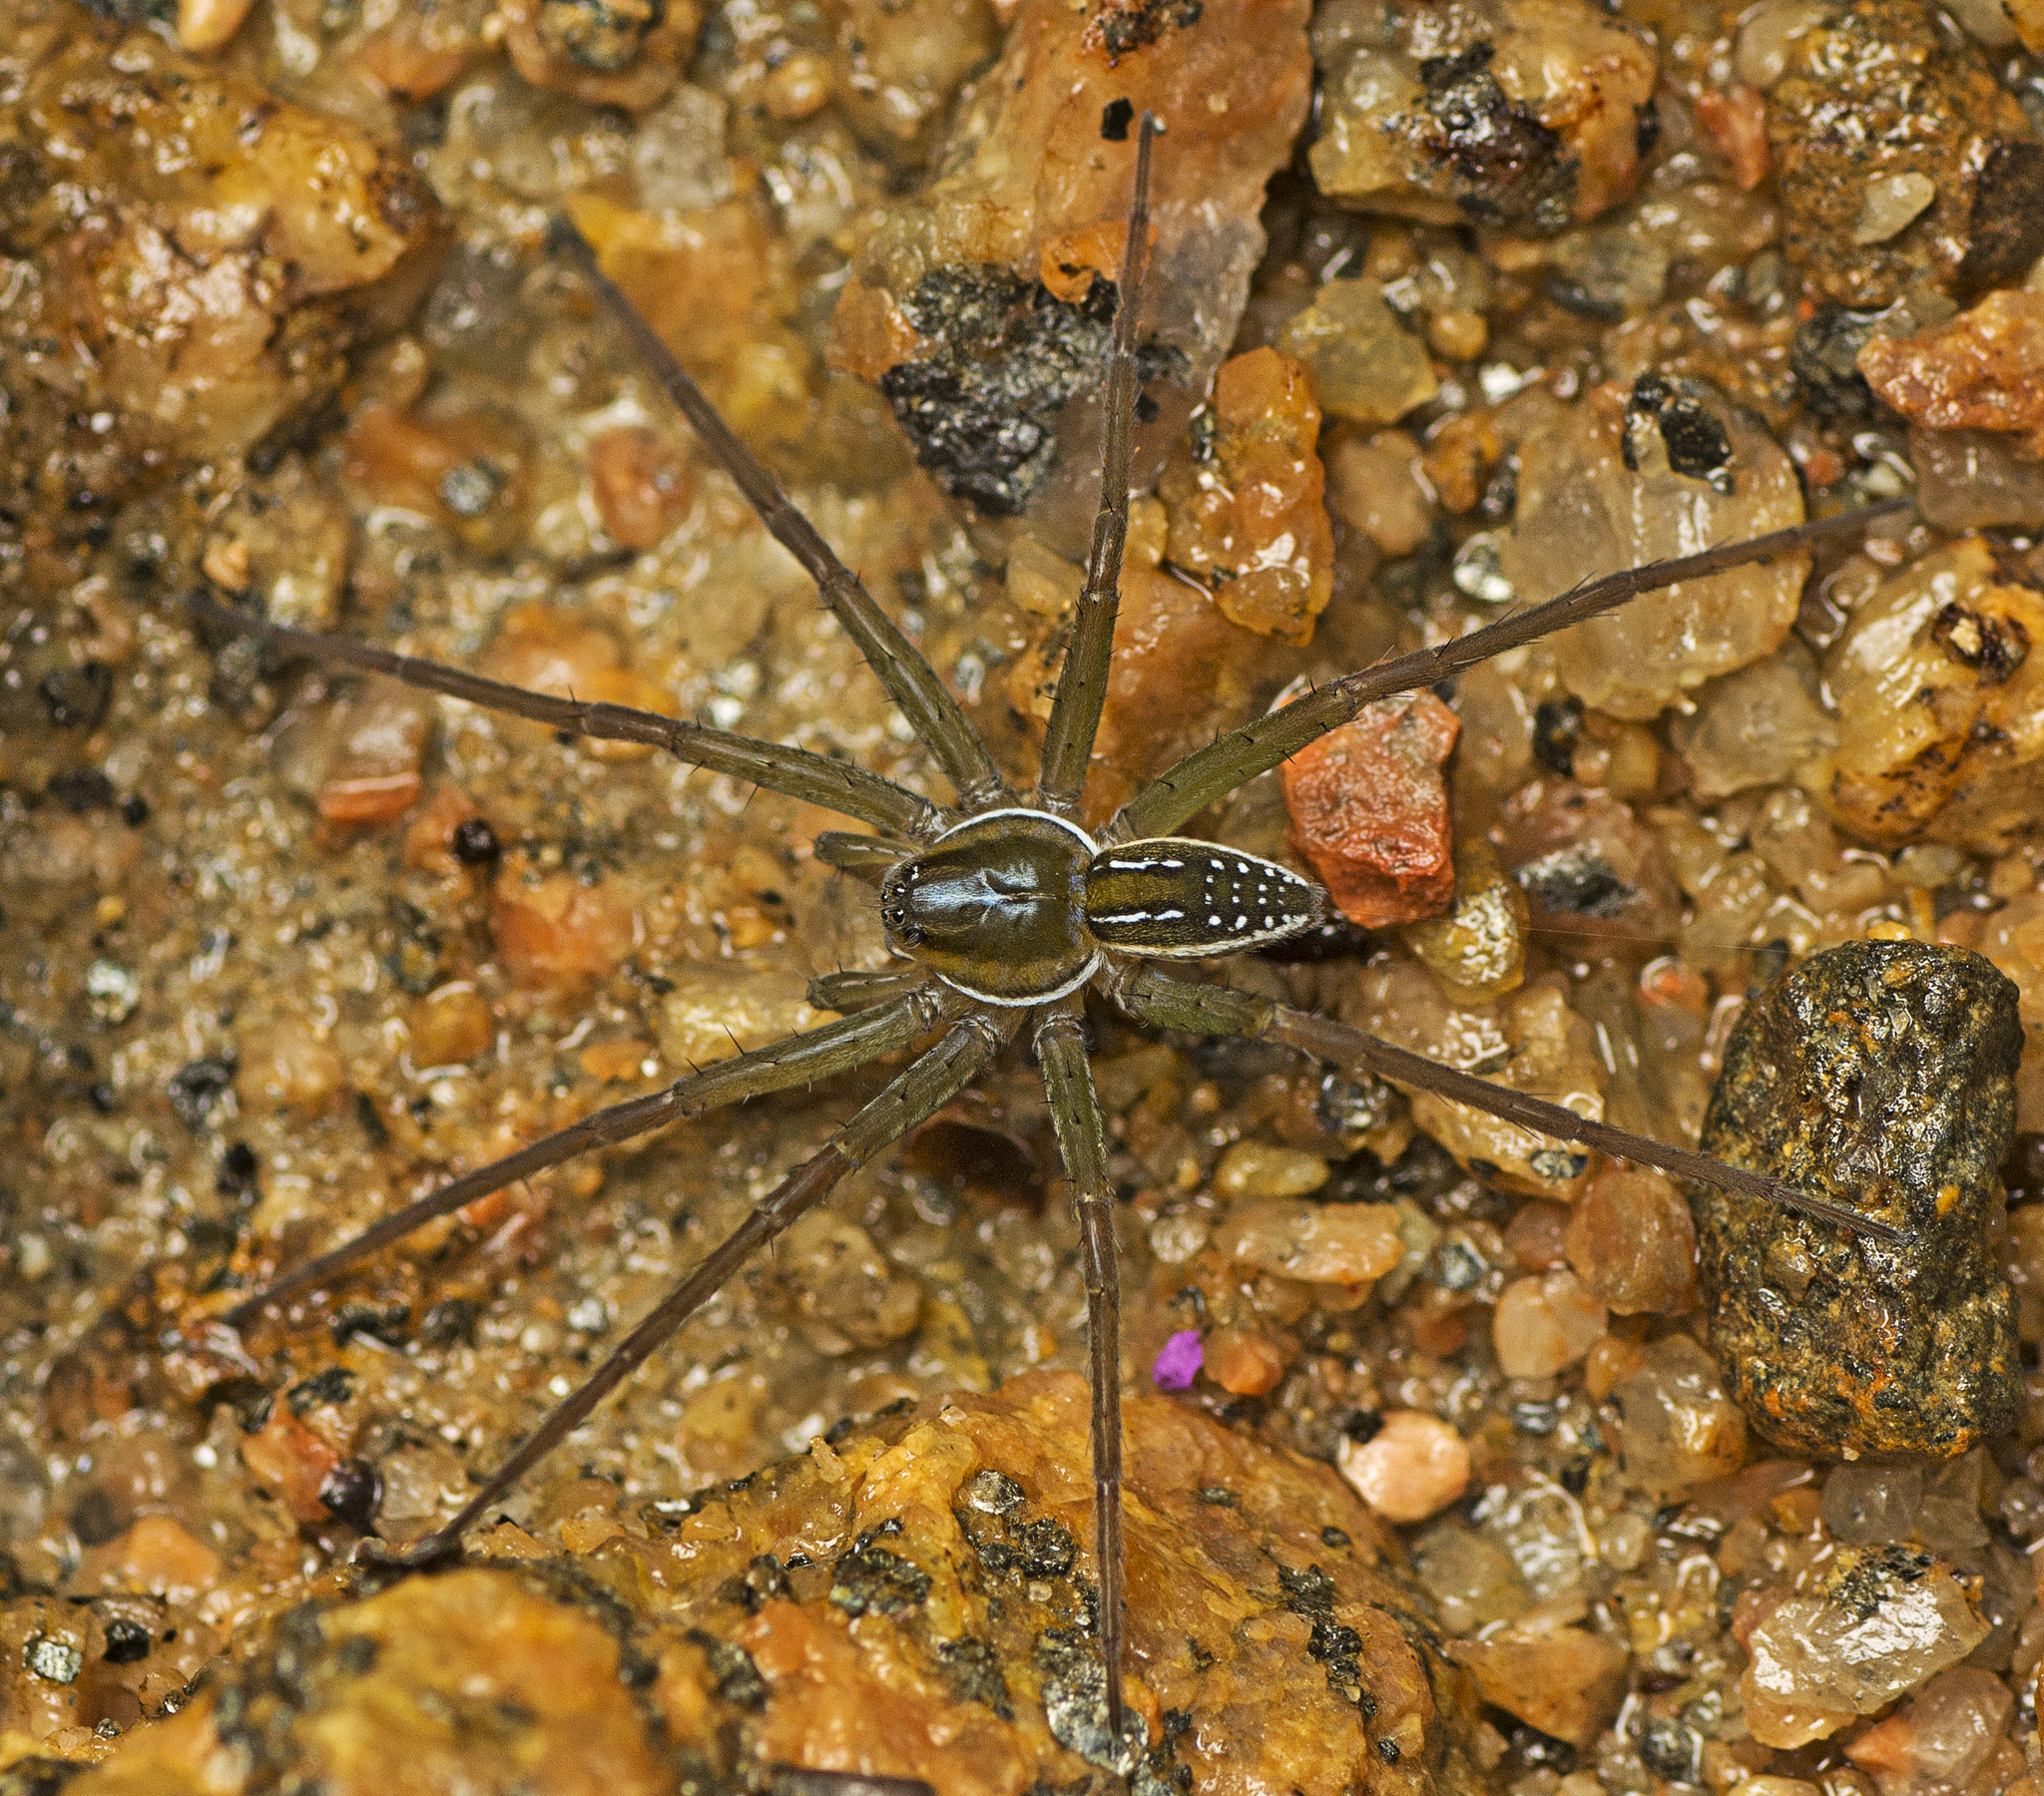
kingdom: Animalia
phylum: Arthropoda
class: Arachnida
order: Araneae
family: Pisauridae
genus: Dolomedes
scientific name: Dolomedes facetus
